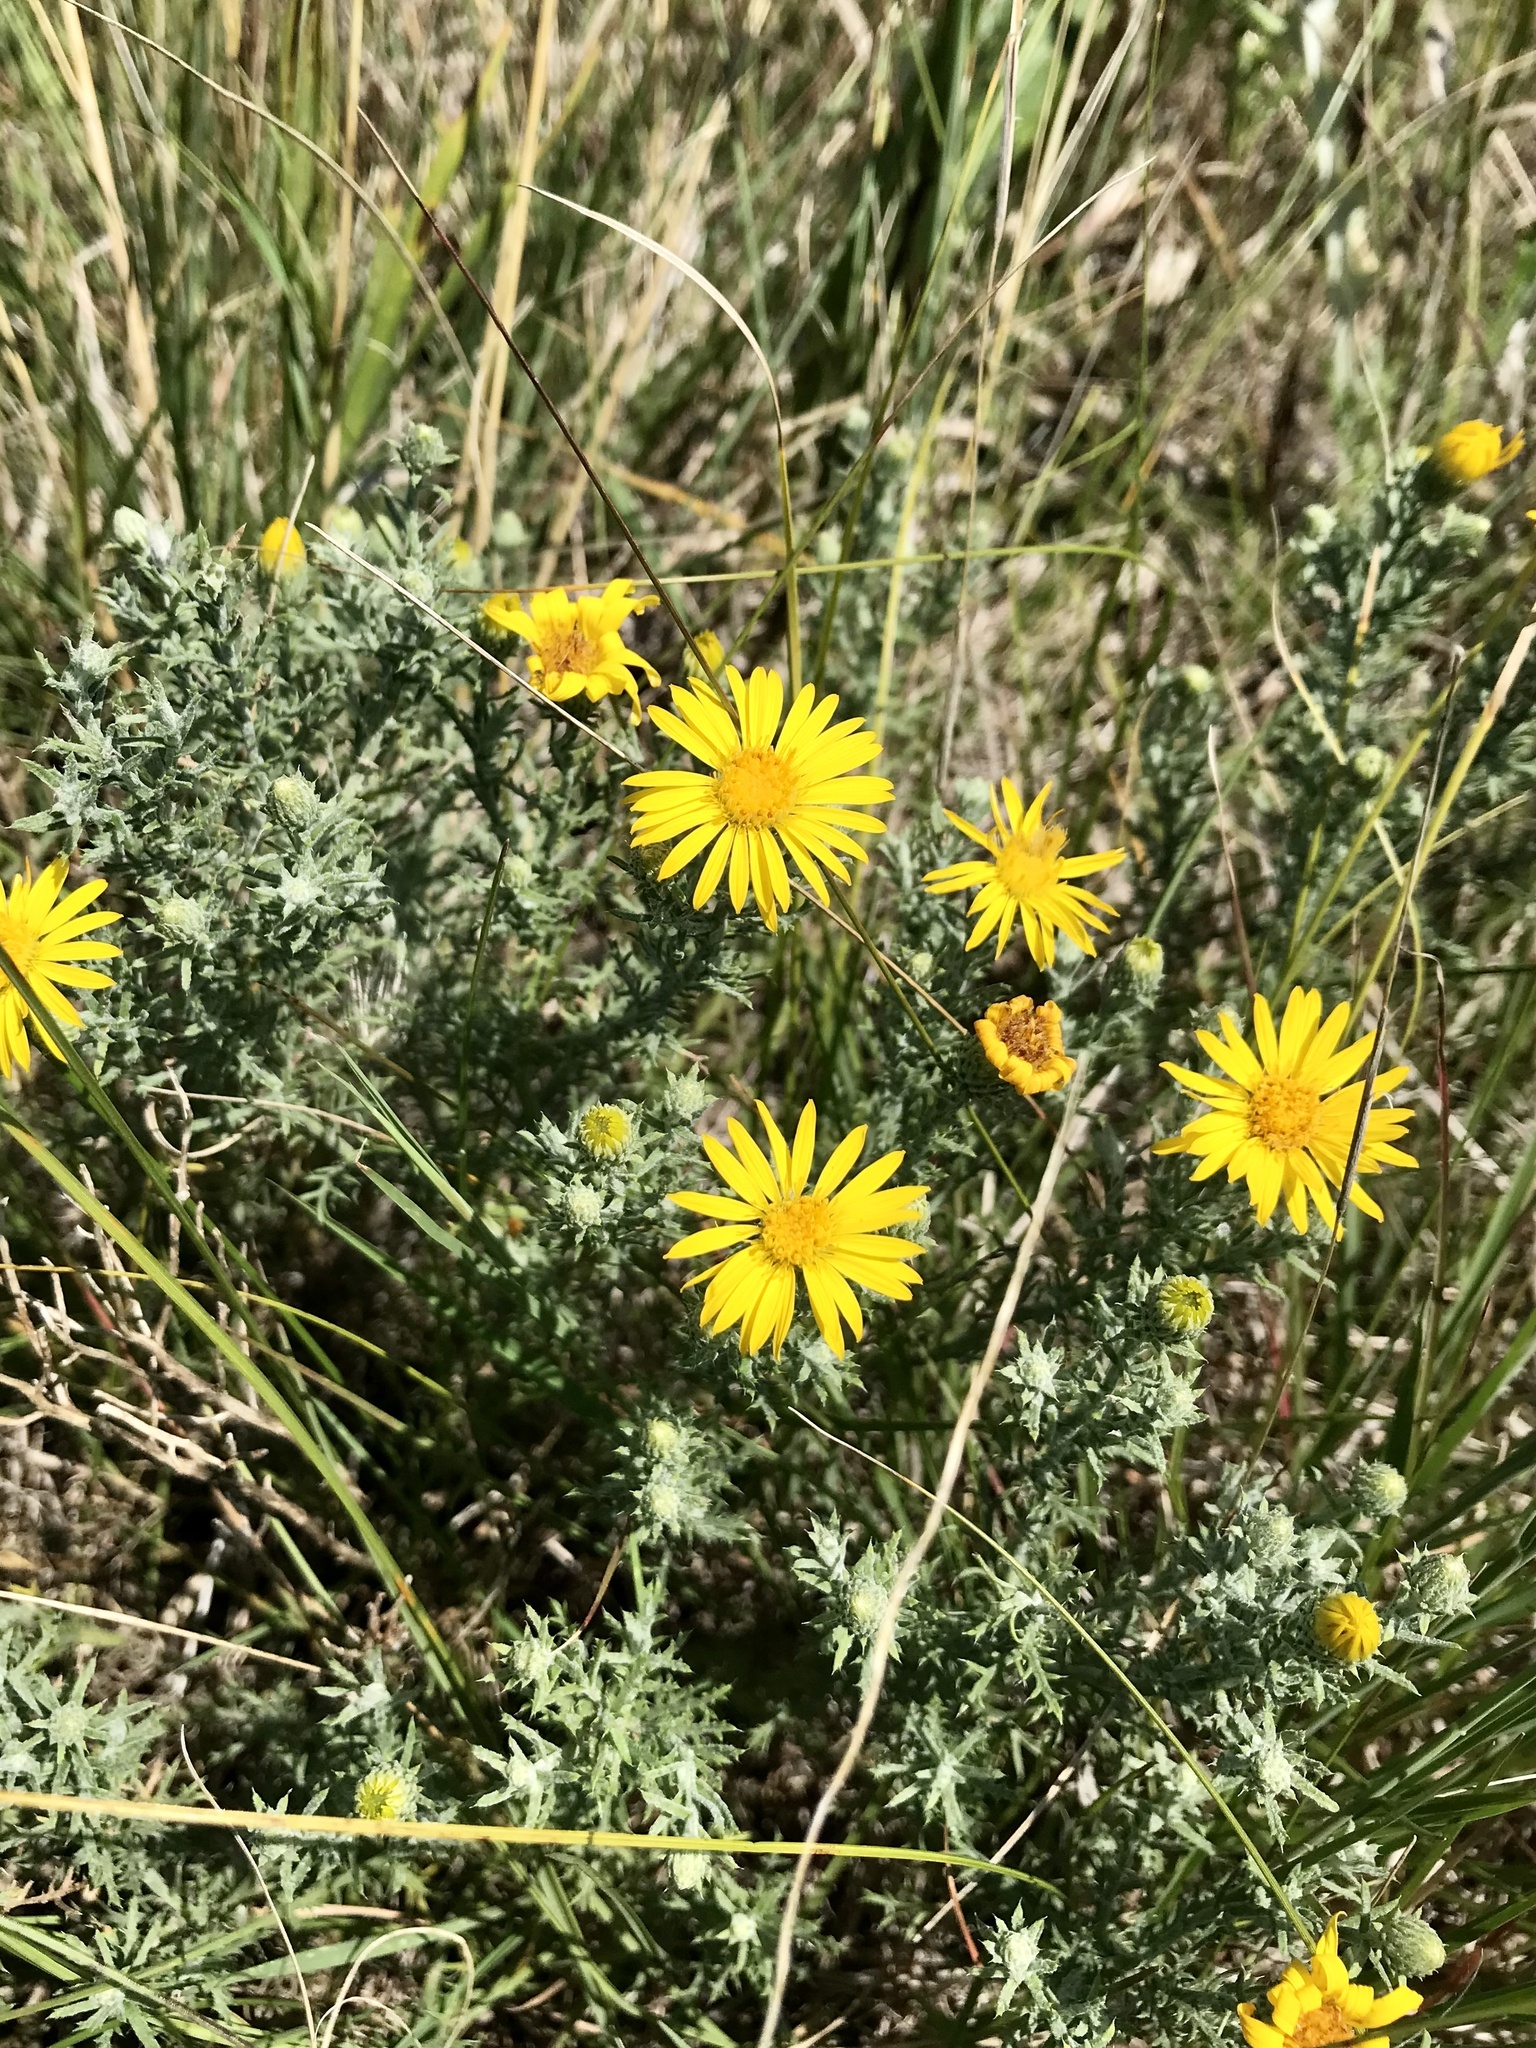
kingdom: Plantae
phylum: Tracheophyta
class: Magnoliopsida
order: Asterales
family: Asteraceae
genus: Xanthisma
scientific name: Xanthisma spinulosum
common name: Spiny goldenweed
